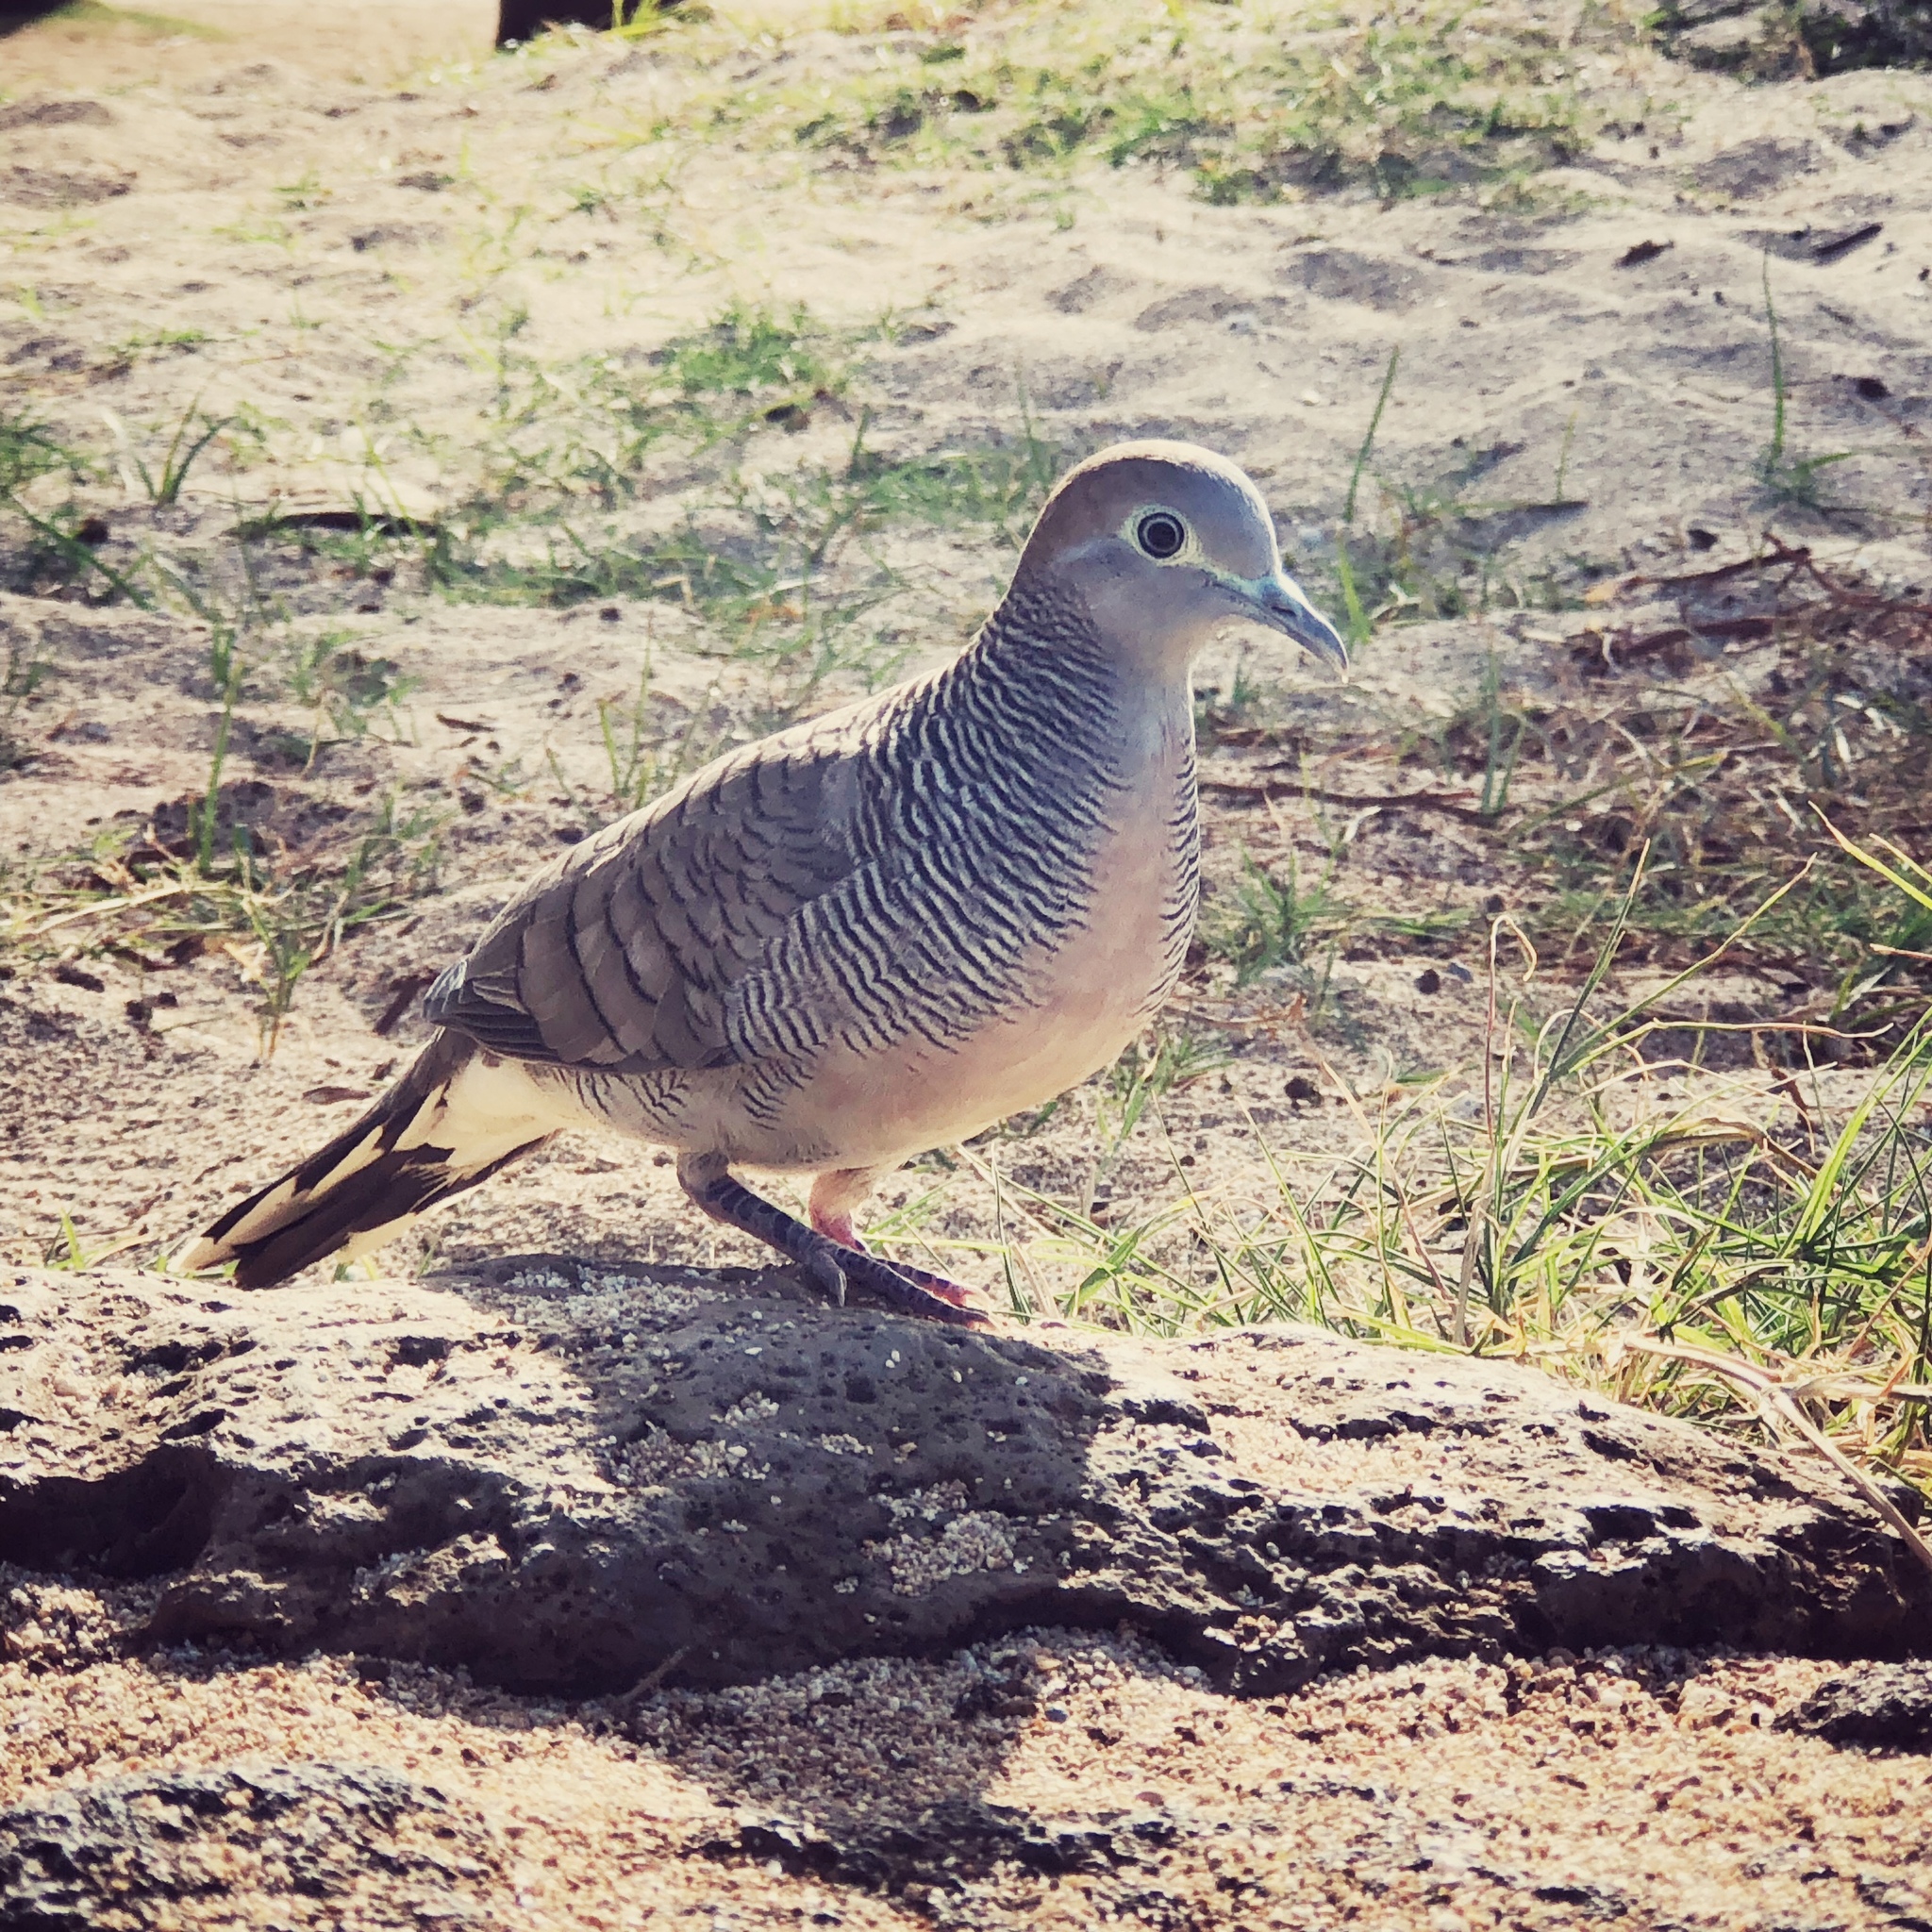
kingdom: Animalia
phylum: Chordata
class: Aves
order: Columbiformes
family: Columbidae
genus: Geopelia
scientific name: Geopelia striata
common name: Zebra dove
